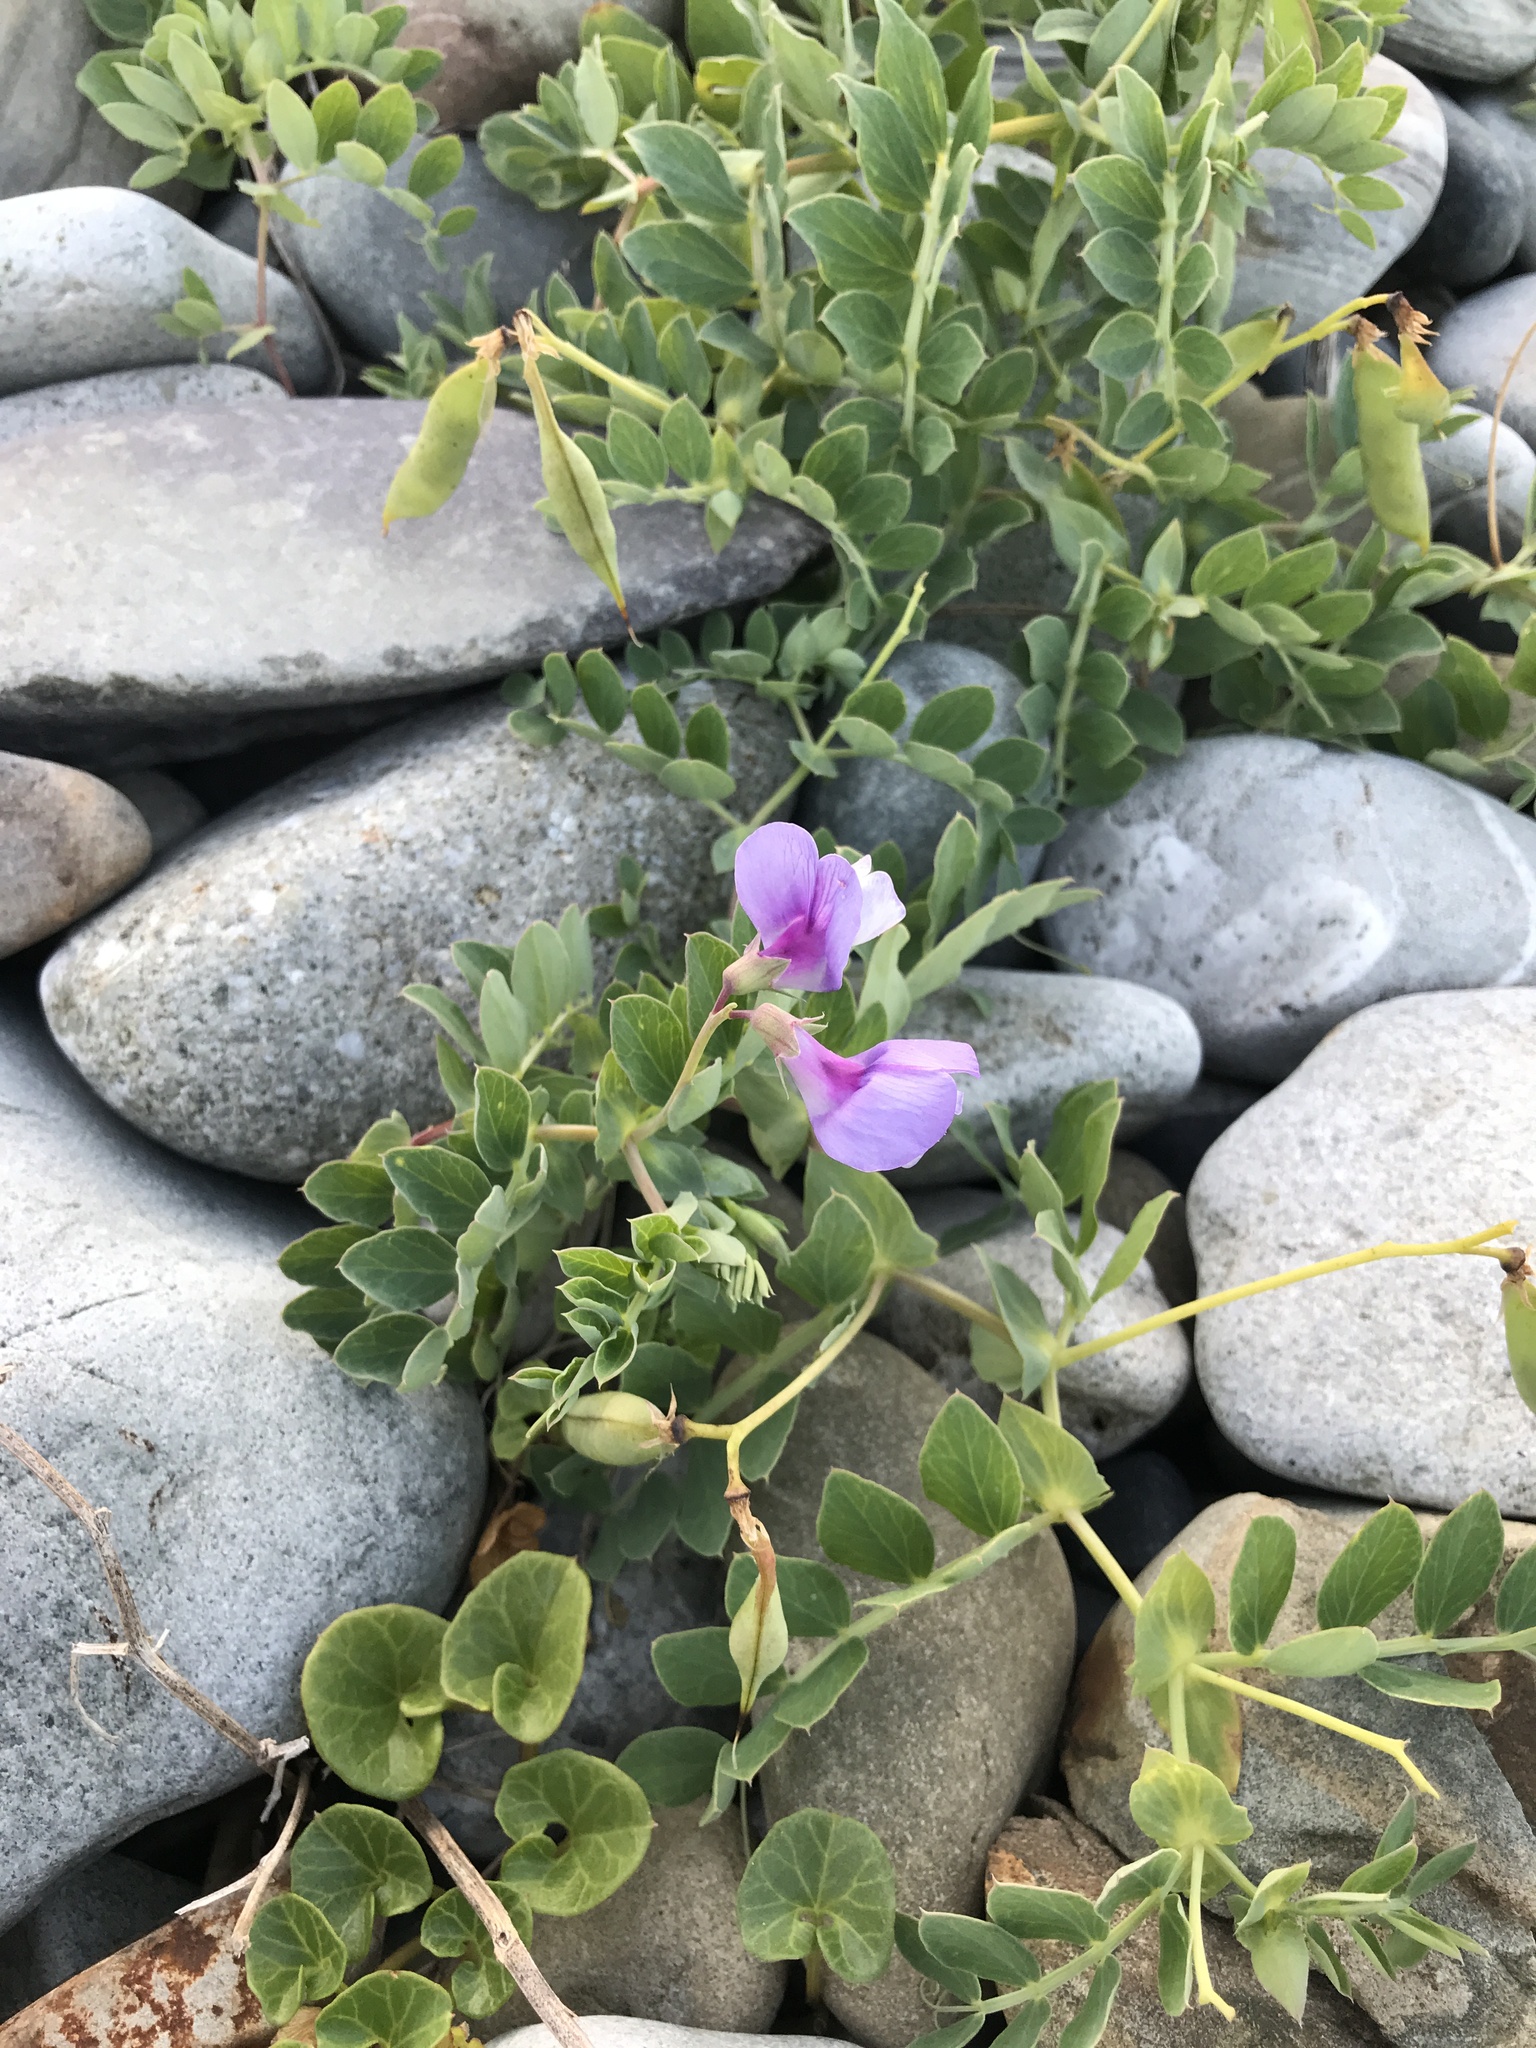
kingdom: Plantae
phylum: Tracheophyta
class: Magnoliopsida
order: Fabales
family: Fabaceae
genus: Lathyrus
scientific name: Lathyrus japonicus
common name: Sea pea
